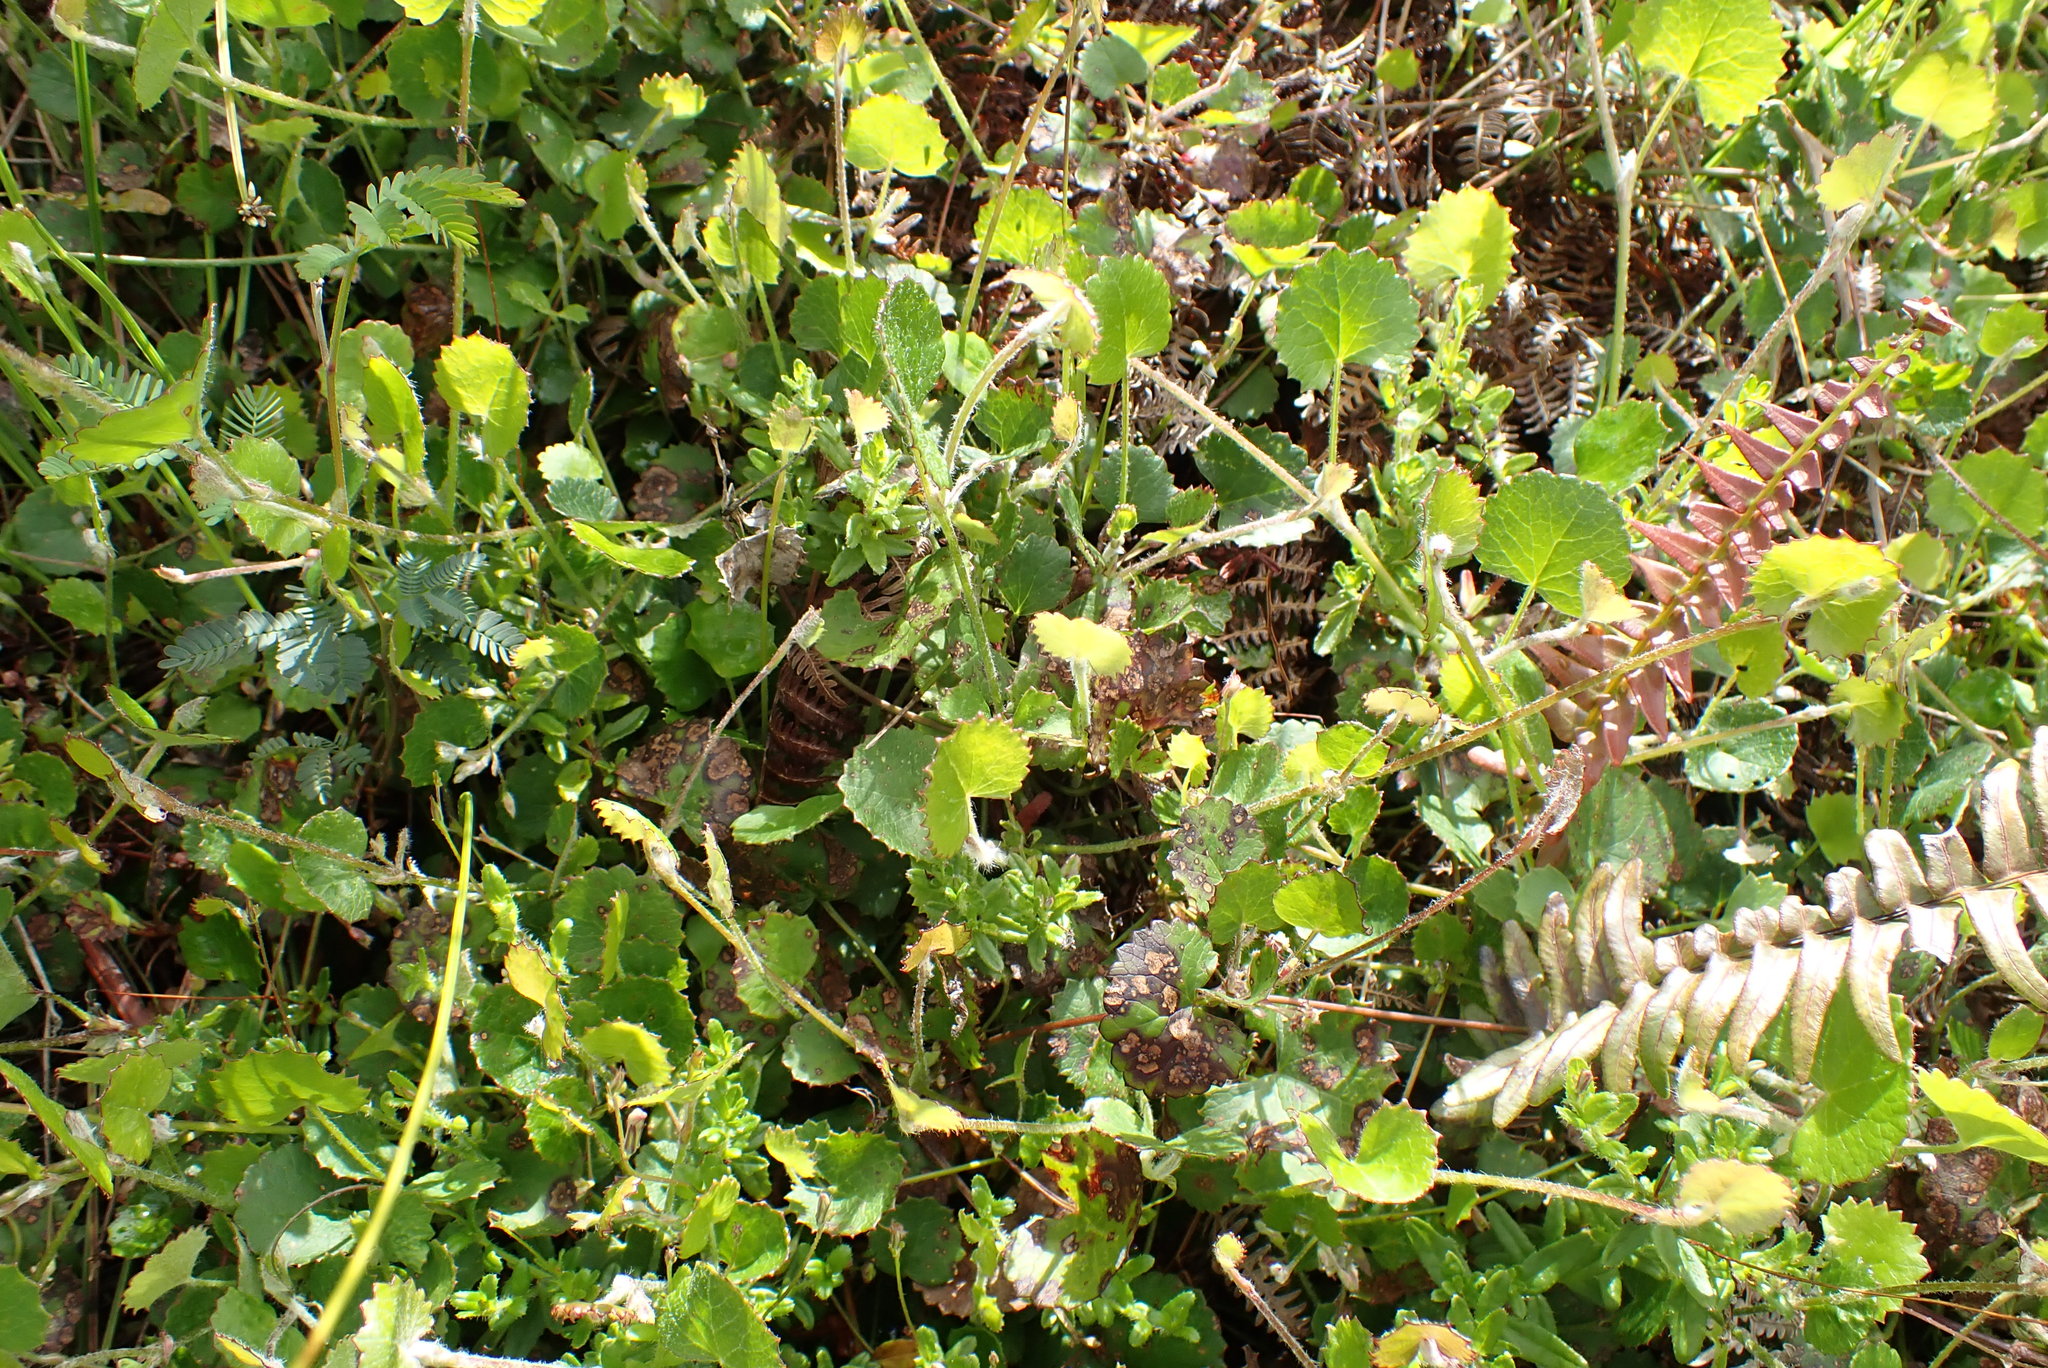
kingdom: Plantae
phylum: Tracheophyta
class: Magnoliopsida
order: Apiales
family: Apiaceae
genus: Centella
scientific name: Centella eriantha
